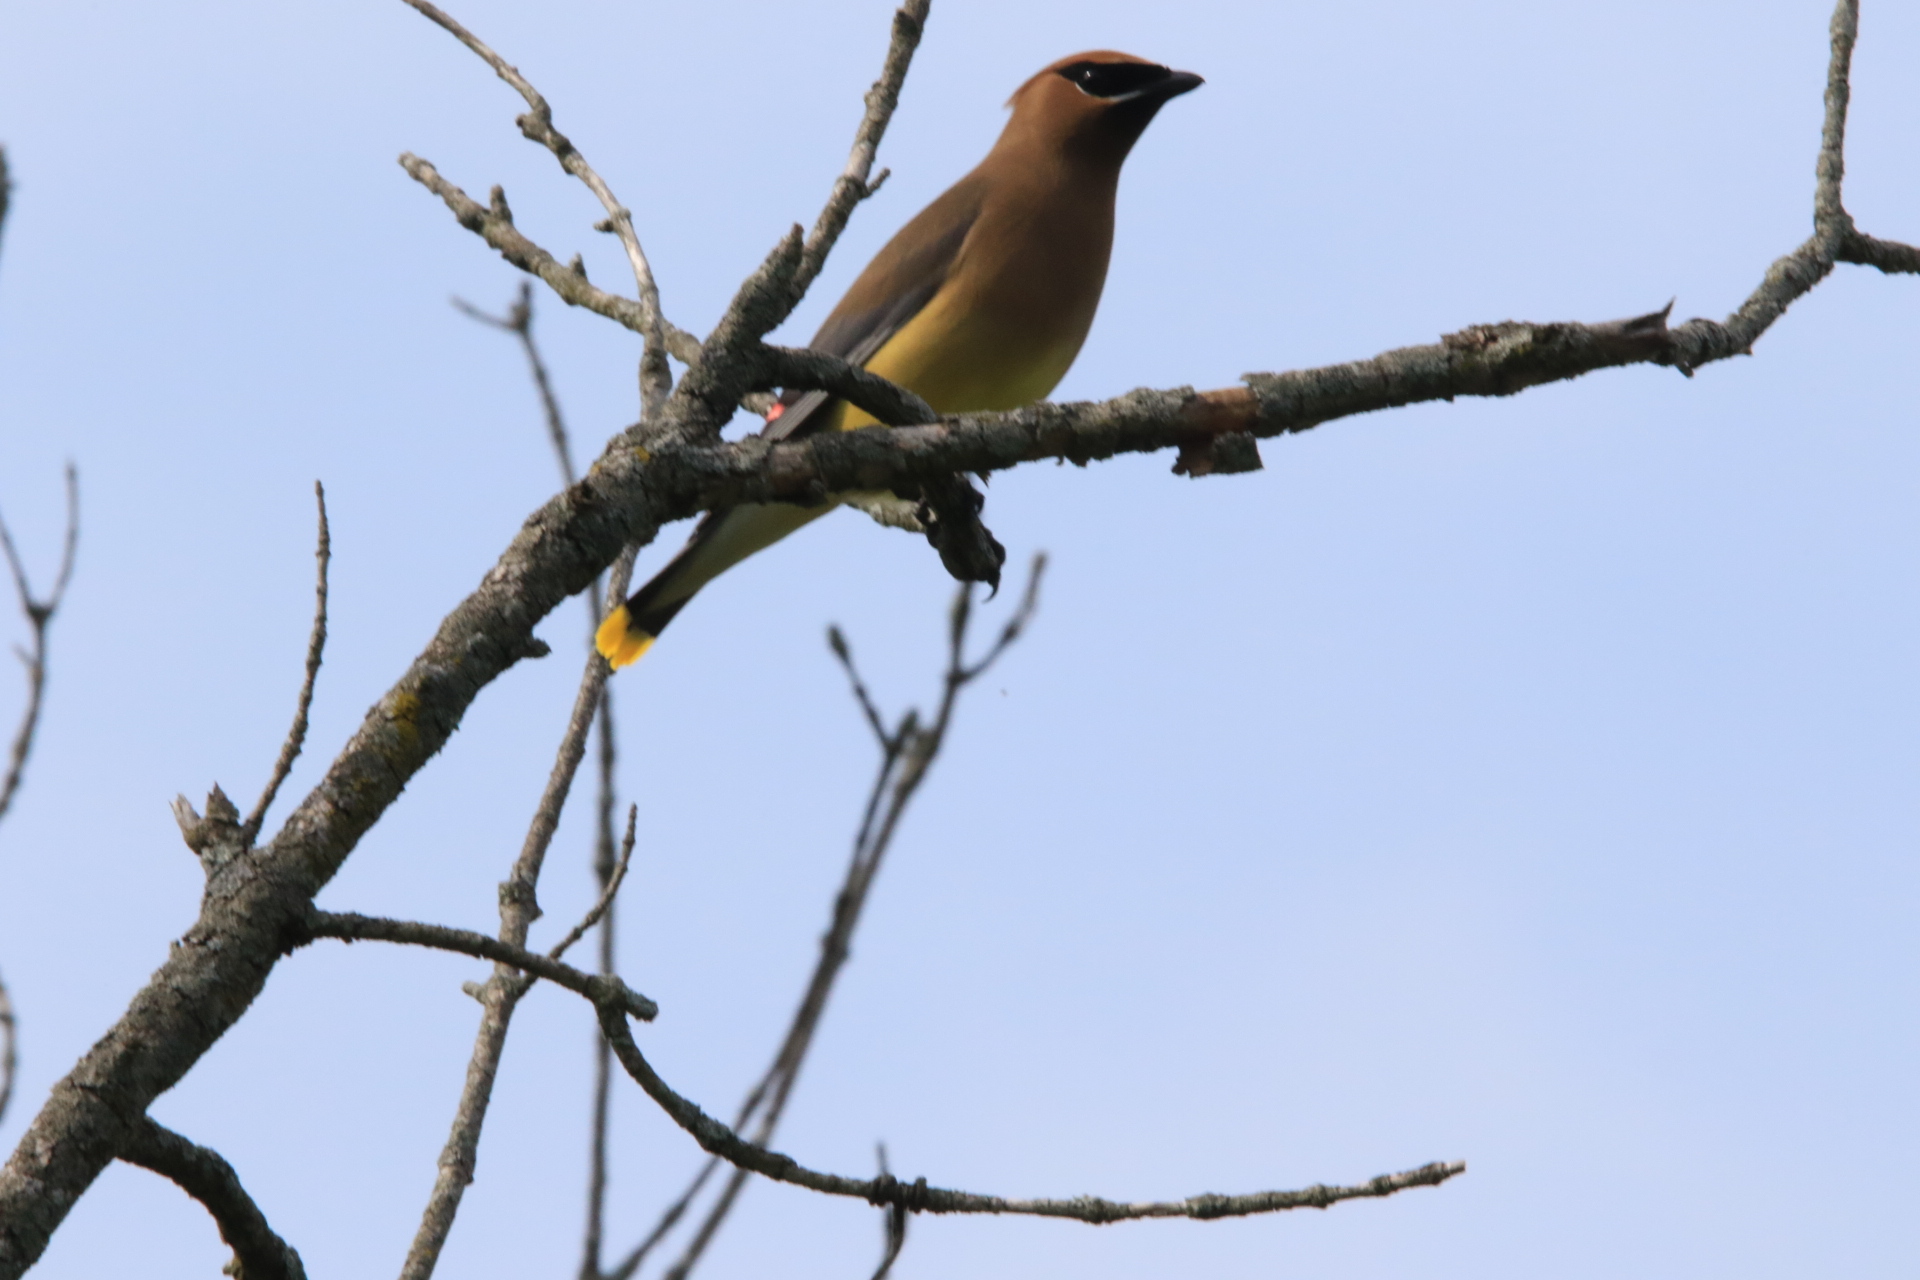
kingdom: Animalia
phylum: Chordata
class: Aves
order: Passeriformes
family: Bombycillidae
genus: Bombycilla
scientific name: Bombycilla cedrorum
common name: Cedar waxwing
